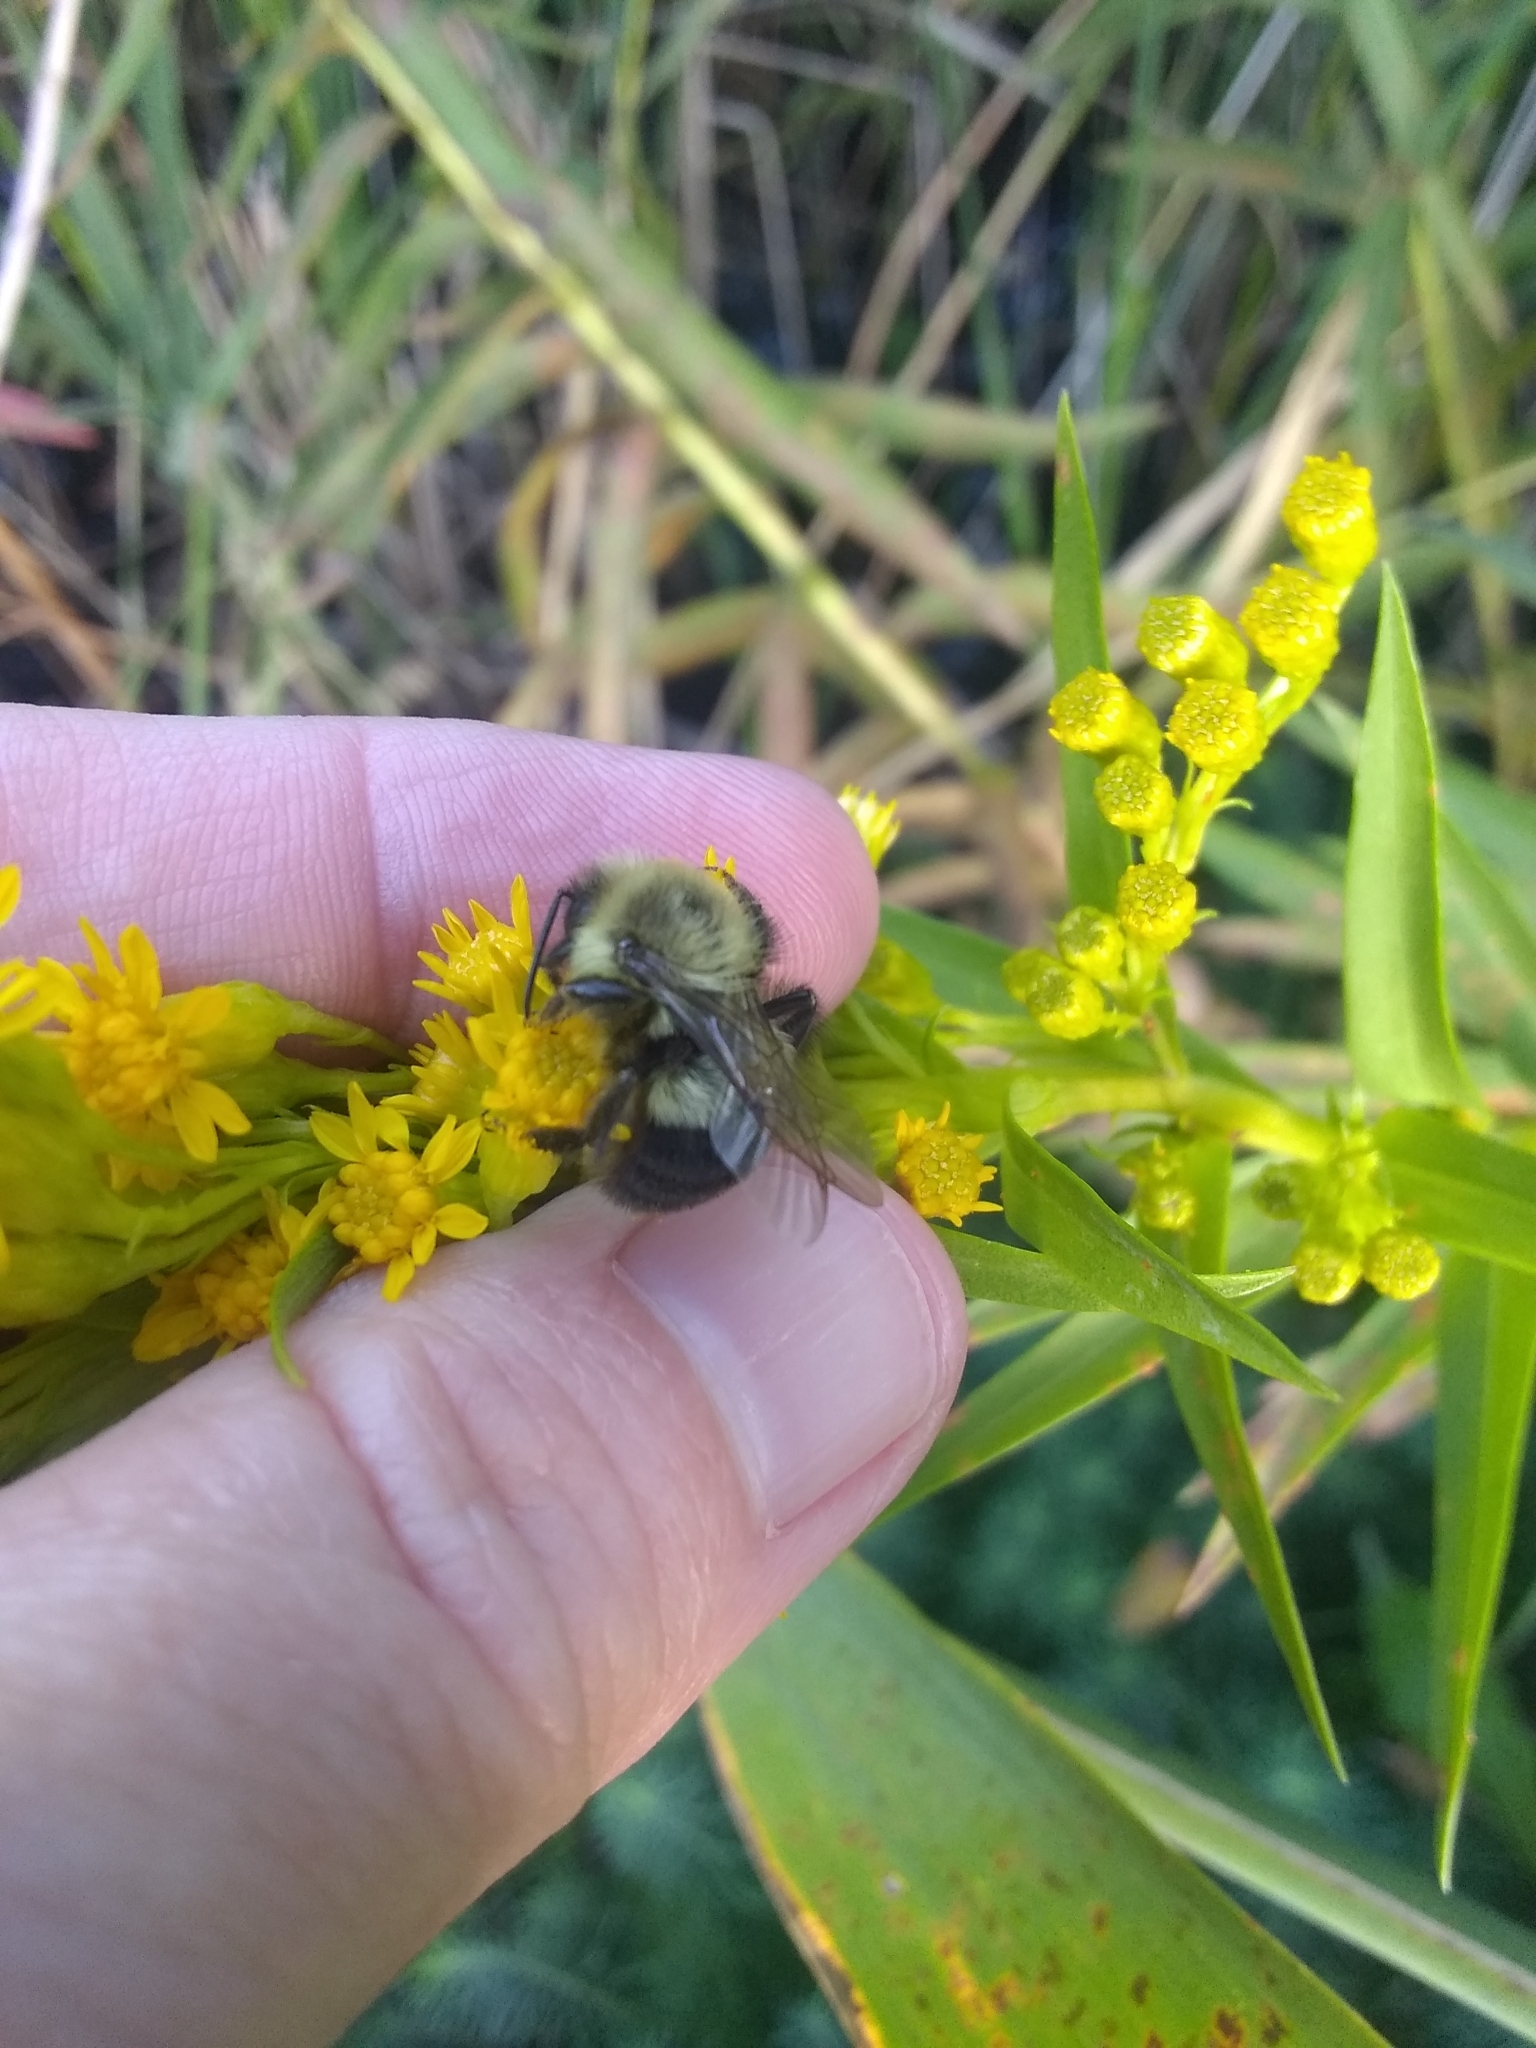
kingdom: Animalia
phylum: Arthropoda
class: Insecta
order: Hymenoptera
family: Apidae
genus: Bombus
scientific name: Bombus impatiens
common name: Common eastern bumble bee
